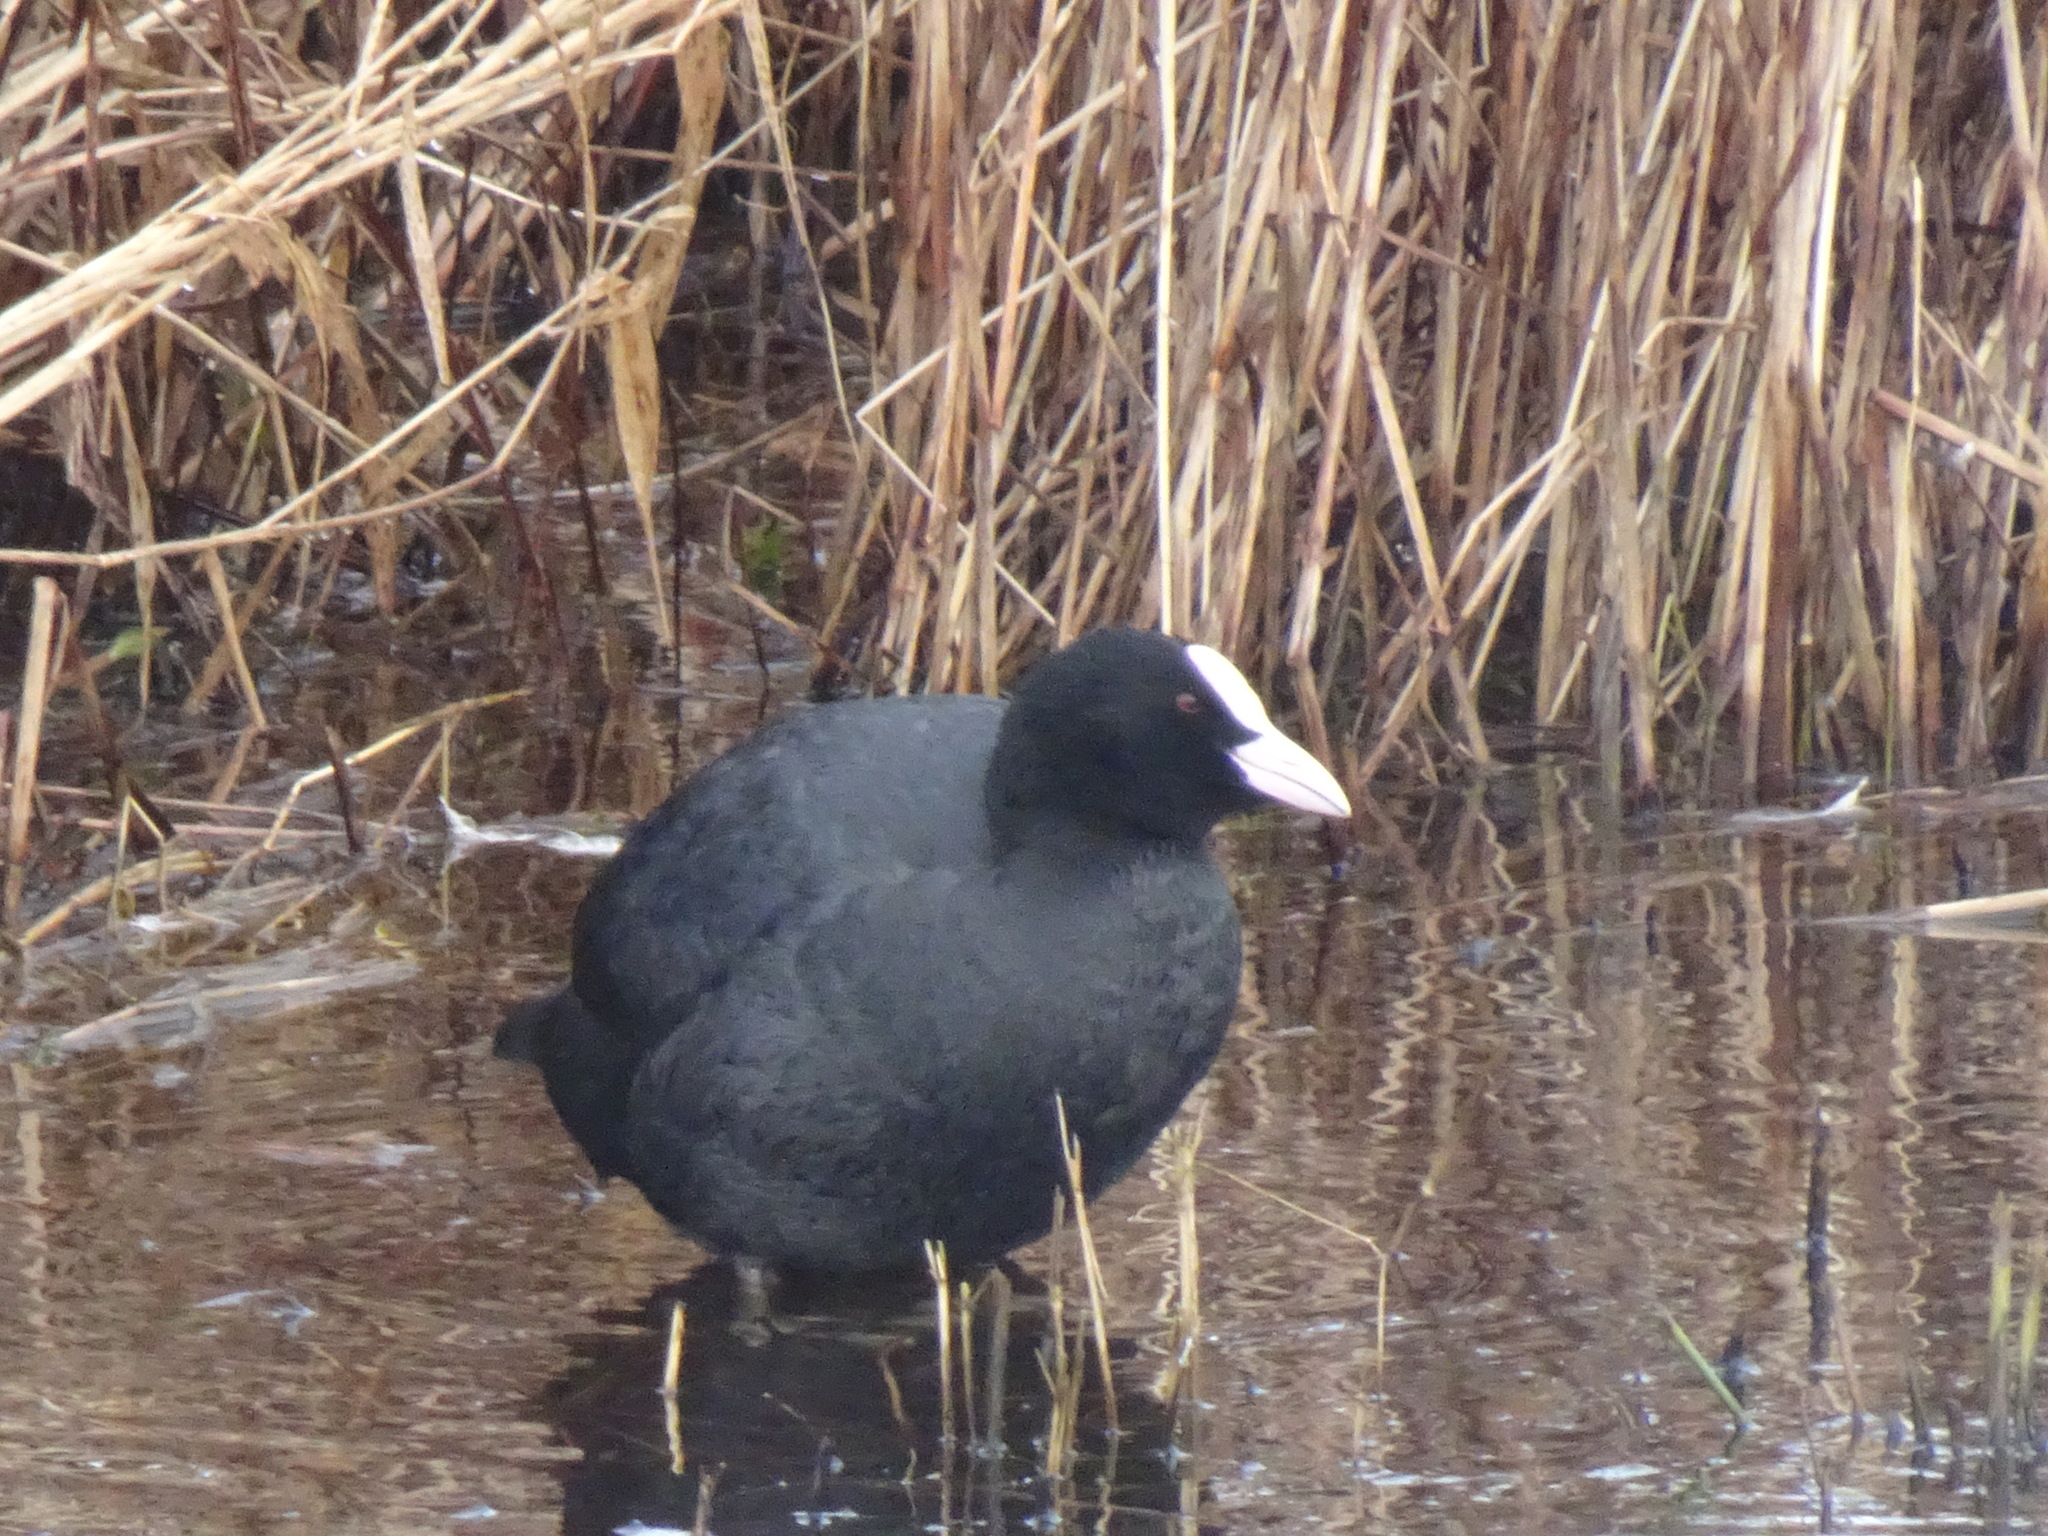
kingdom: Animalia
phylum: Chordata
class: Aves
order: Gruiformes
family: Rallidae
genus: Fulica
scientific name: Fulica atra
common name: Eurasian coot
